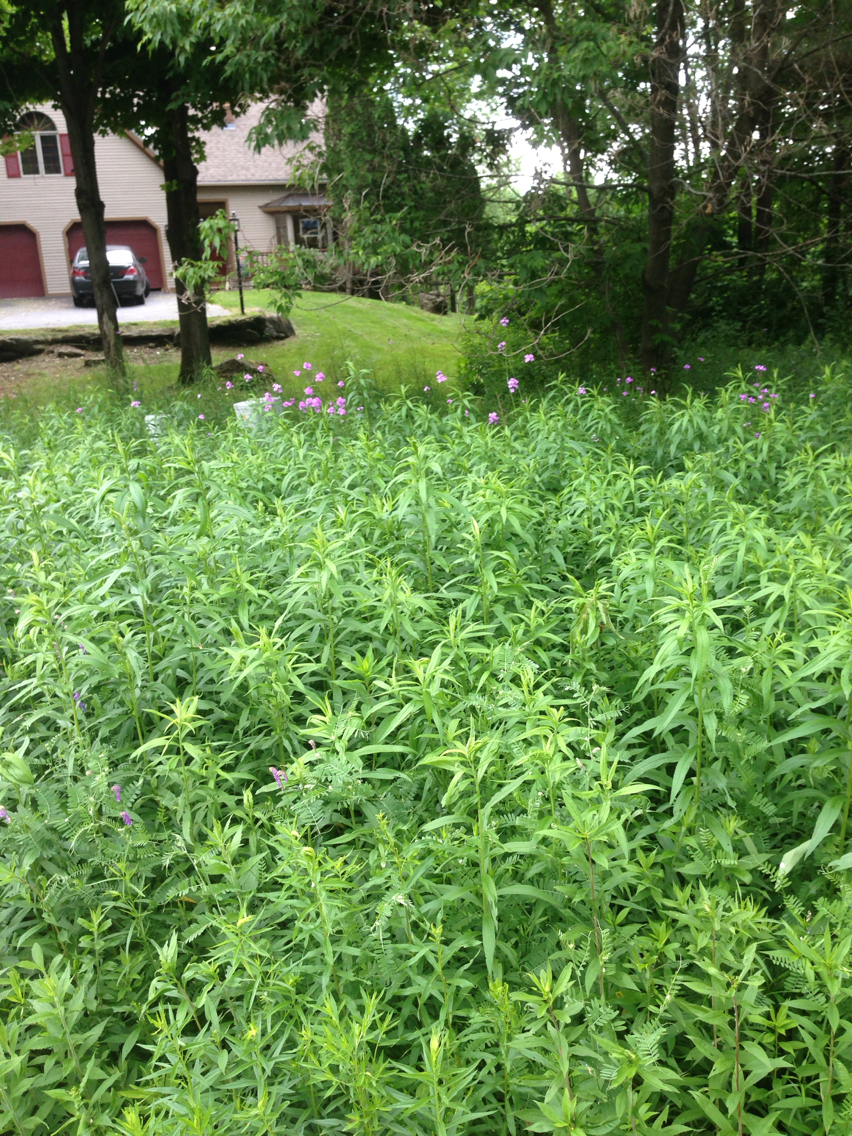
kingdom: Plantae
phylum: Tracheophyta
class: Magnoliopsida
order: Brassicales
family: Brassicaceae
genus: Hesperis
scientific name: Hesperis matronalis
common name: Dame's-violet
